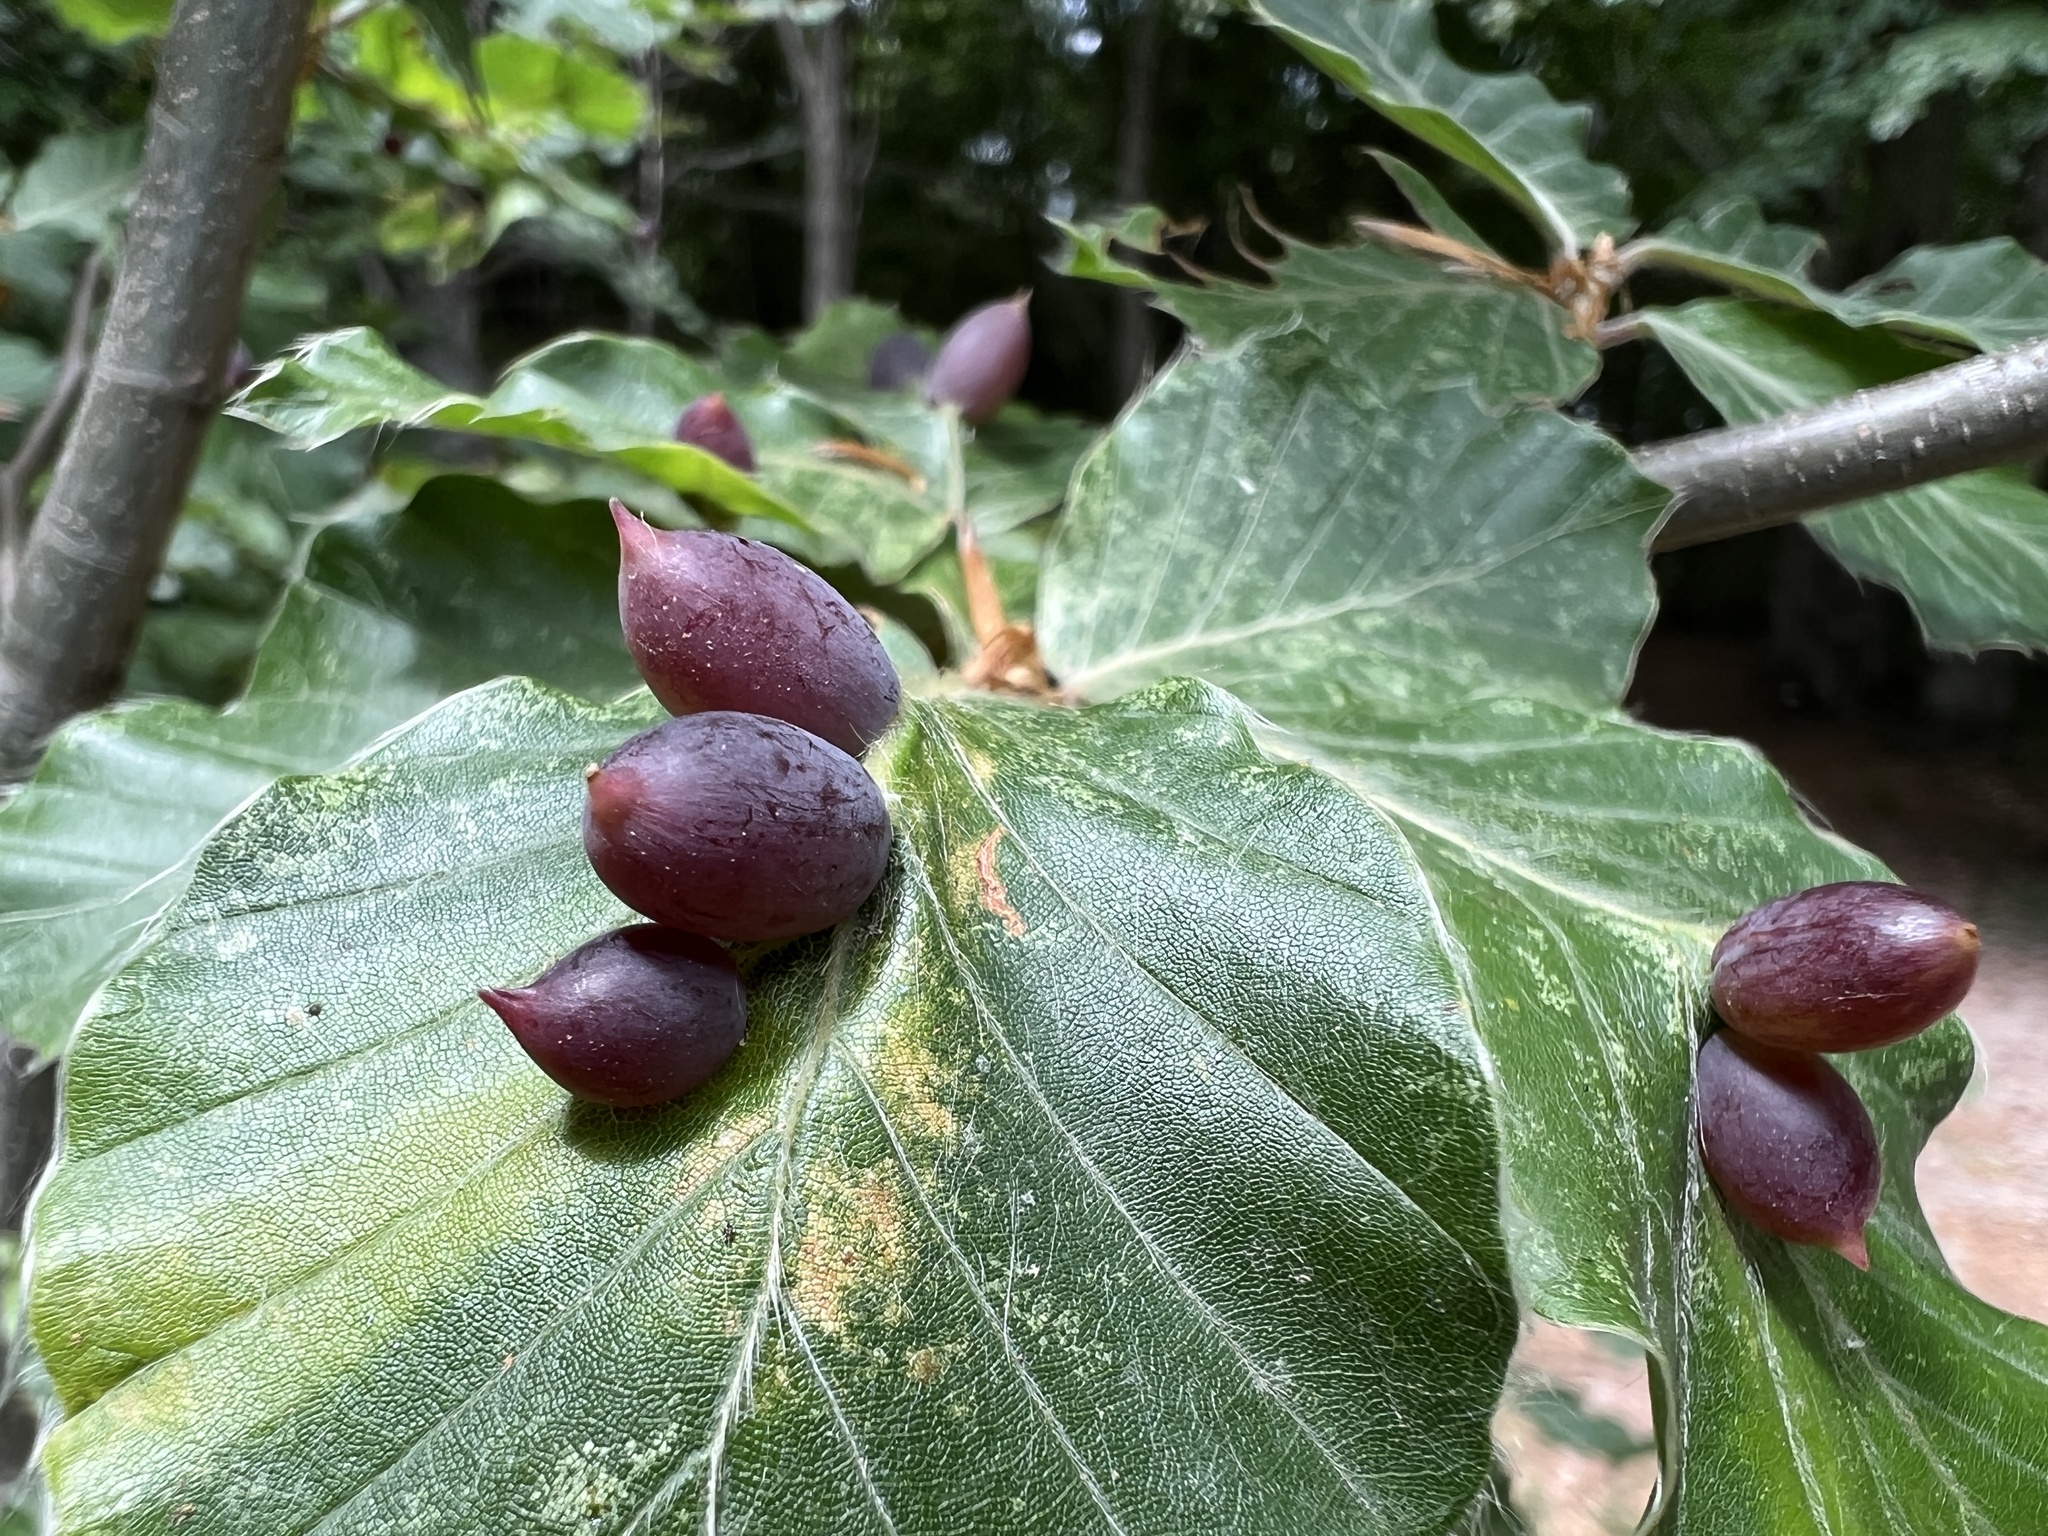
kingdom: Animalia
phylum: Arthropoda
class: Insecta
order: Diptera
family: Cecidomyiidae
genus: Mikiola
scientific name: Mikiola fagi
